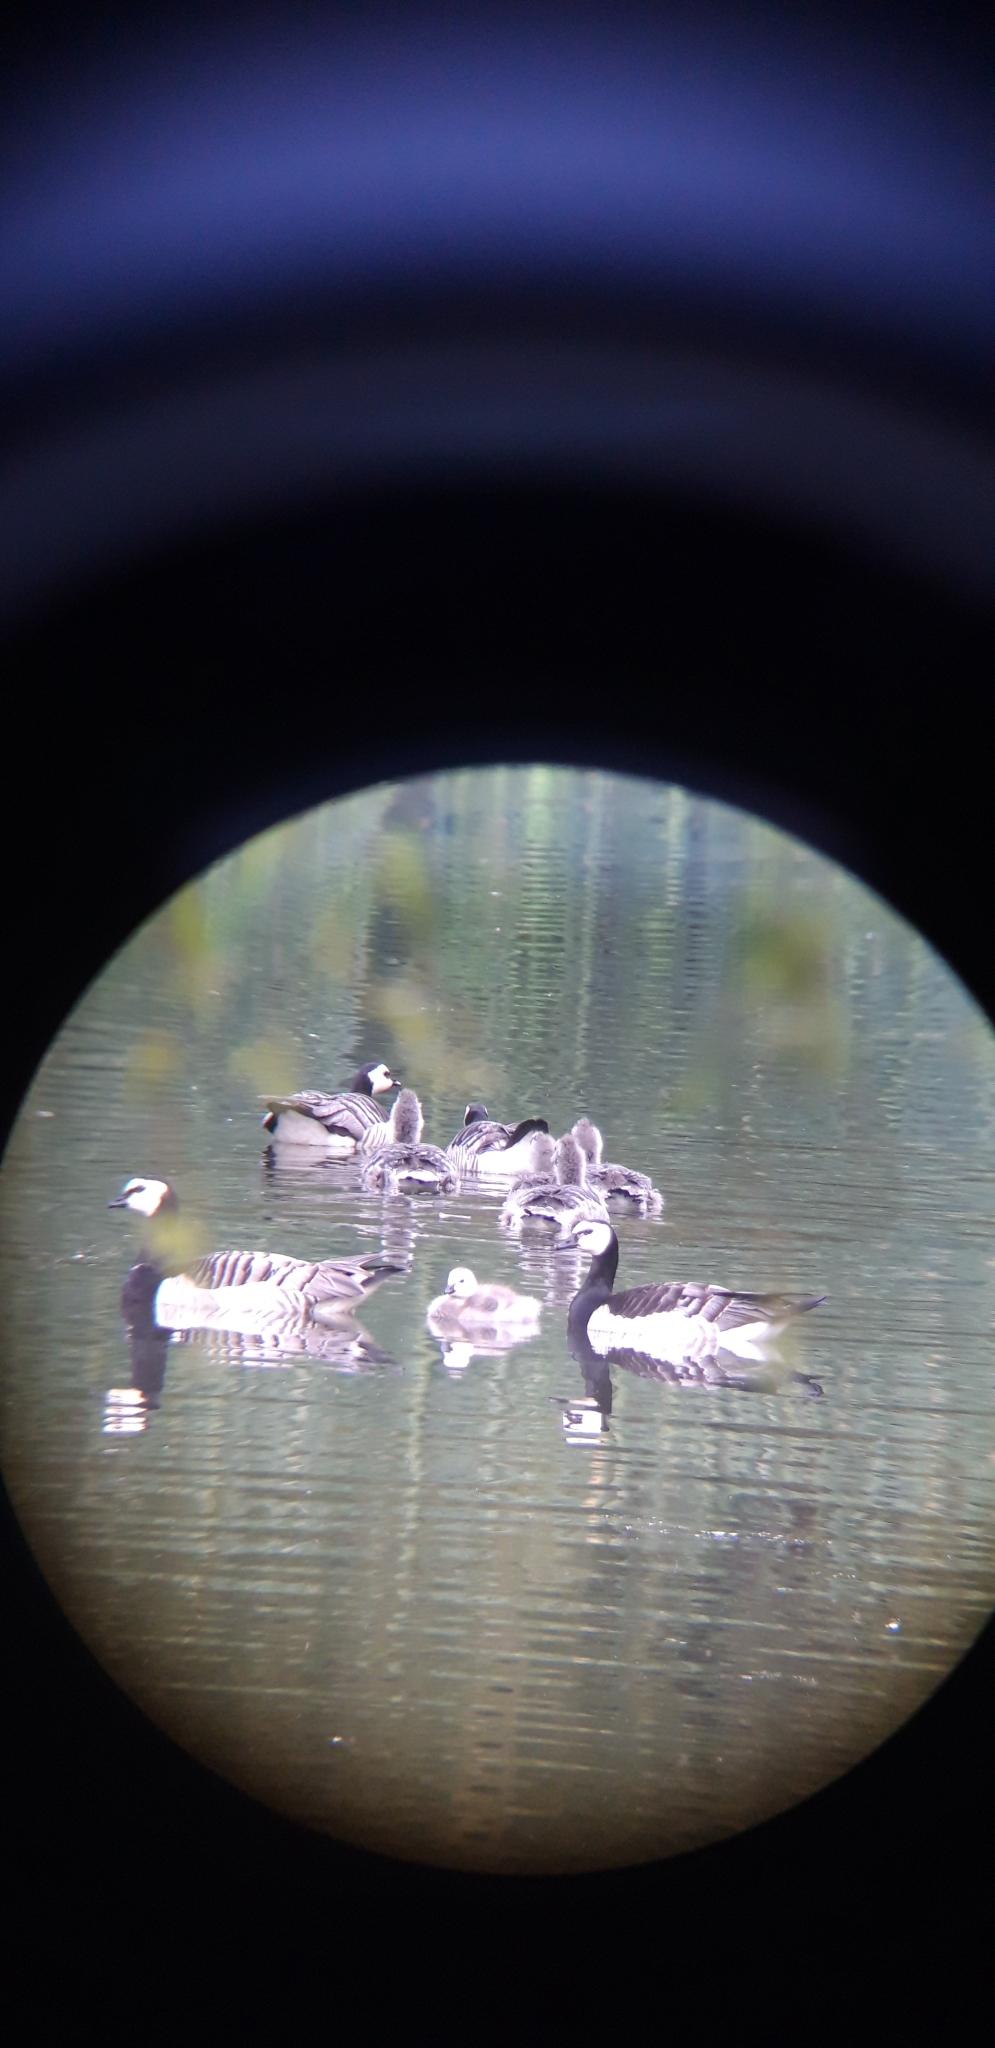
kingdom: Animalia
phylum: Chordata
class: Aves
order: Anseriformes
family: Anatidae
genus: Branta
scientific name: Branta leucopsis
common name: Barnacle goose
